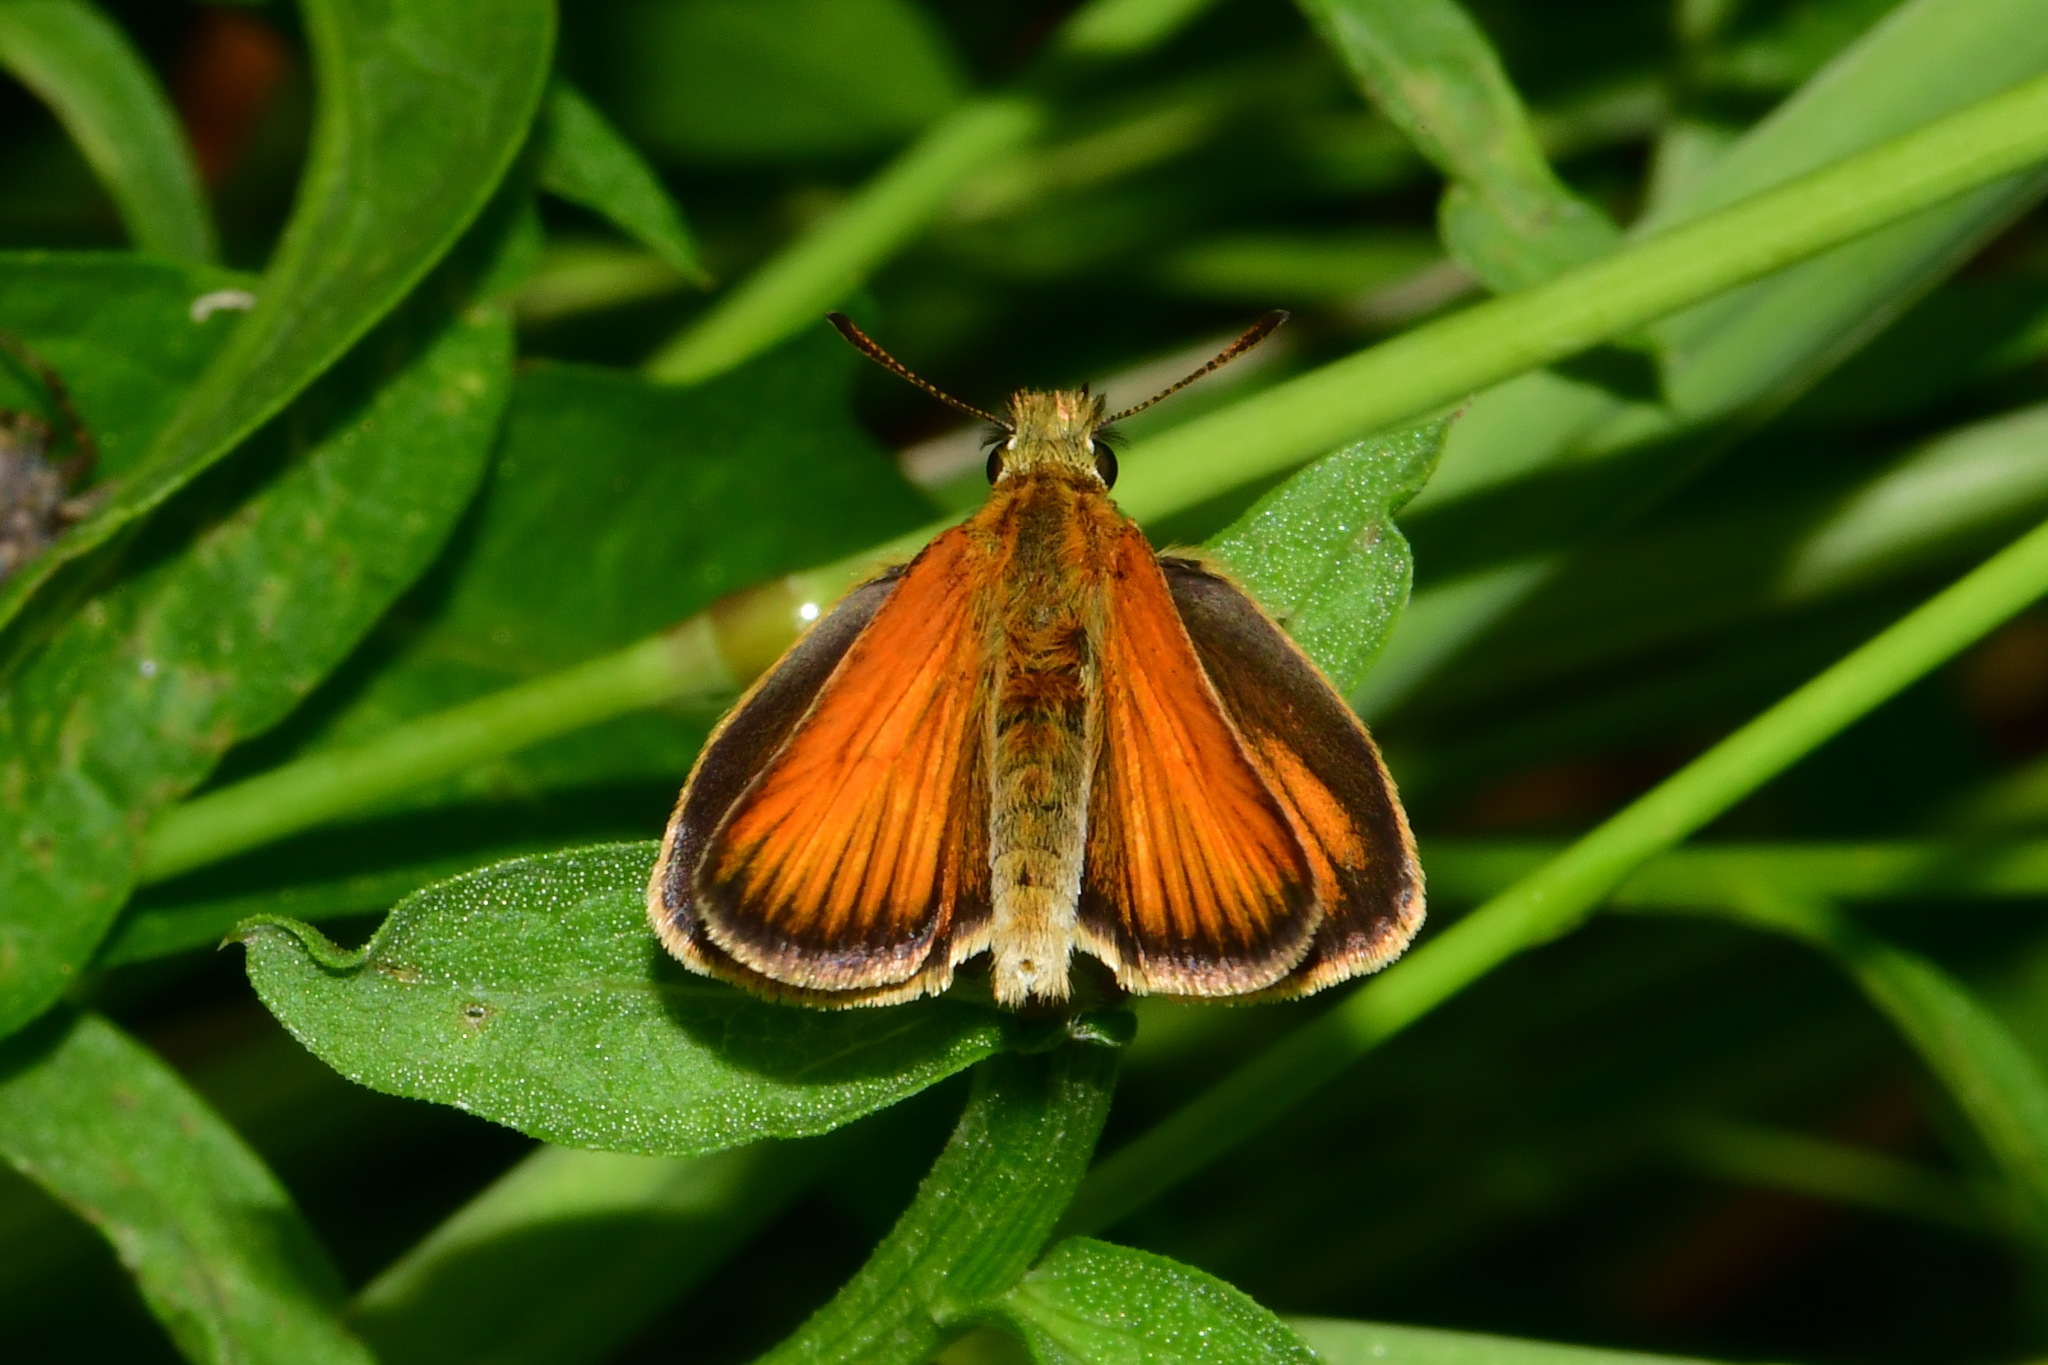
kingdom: Animalia
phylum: Arthropoda
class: Insecta
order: Lepidoptera
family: Hesperiidae
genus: Thymelicus
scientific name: Thymelicus lineola
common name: Essex skipper
